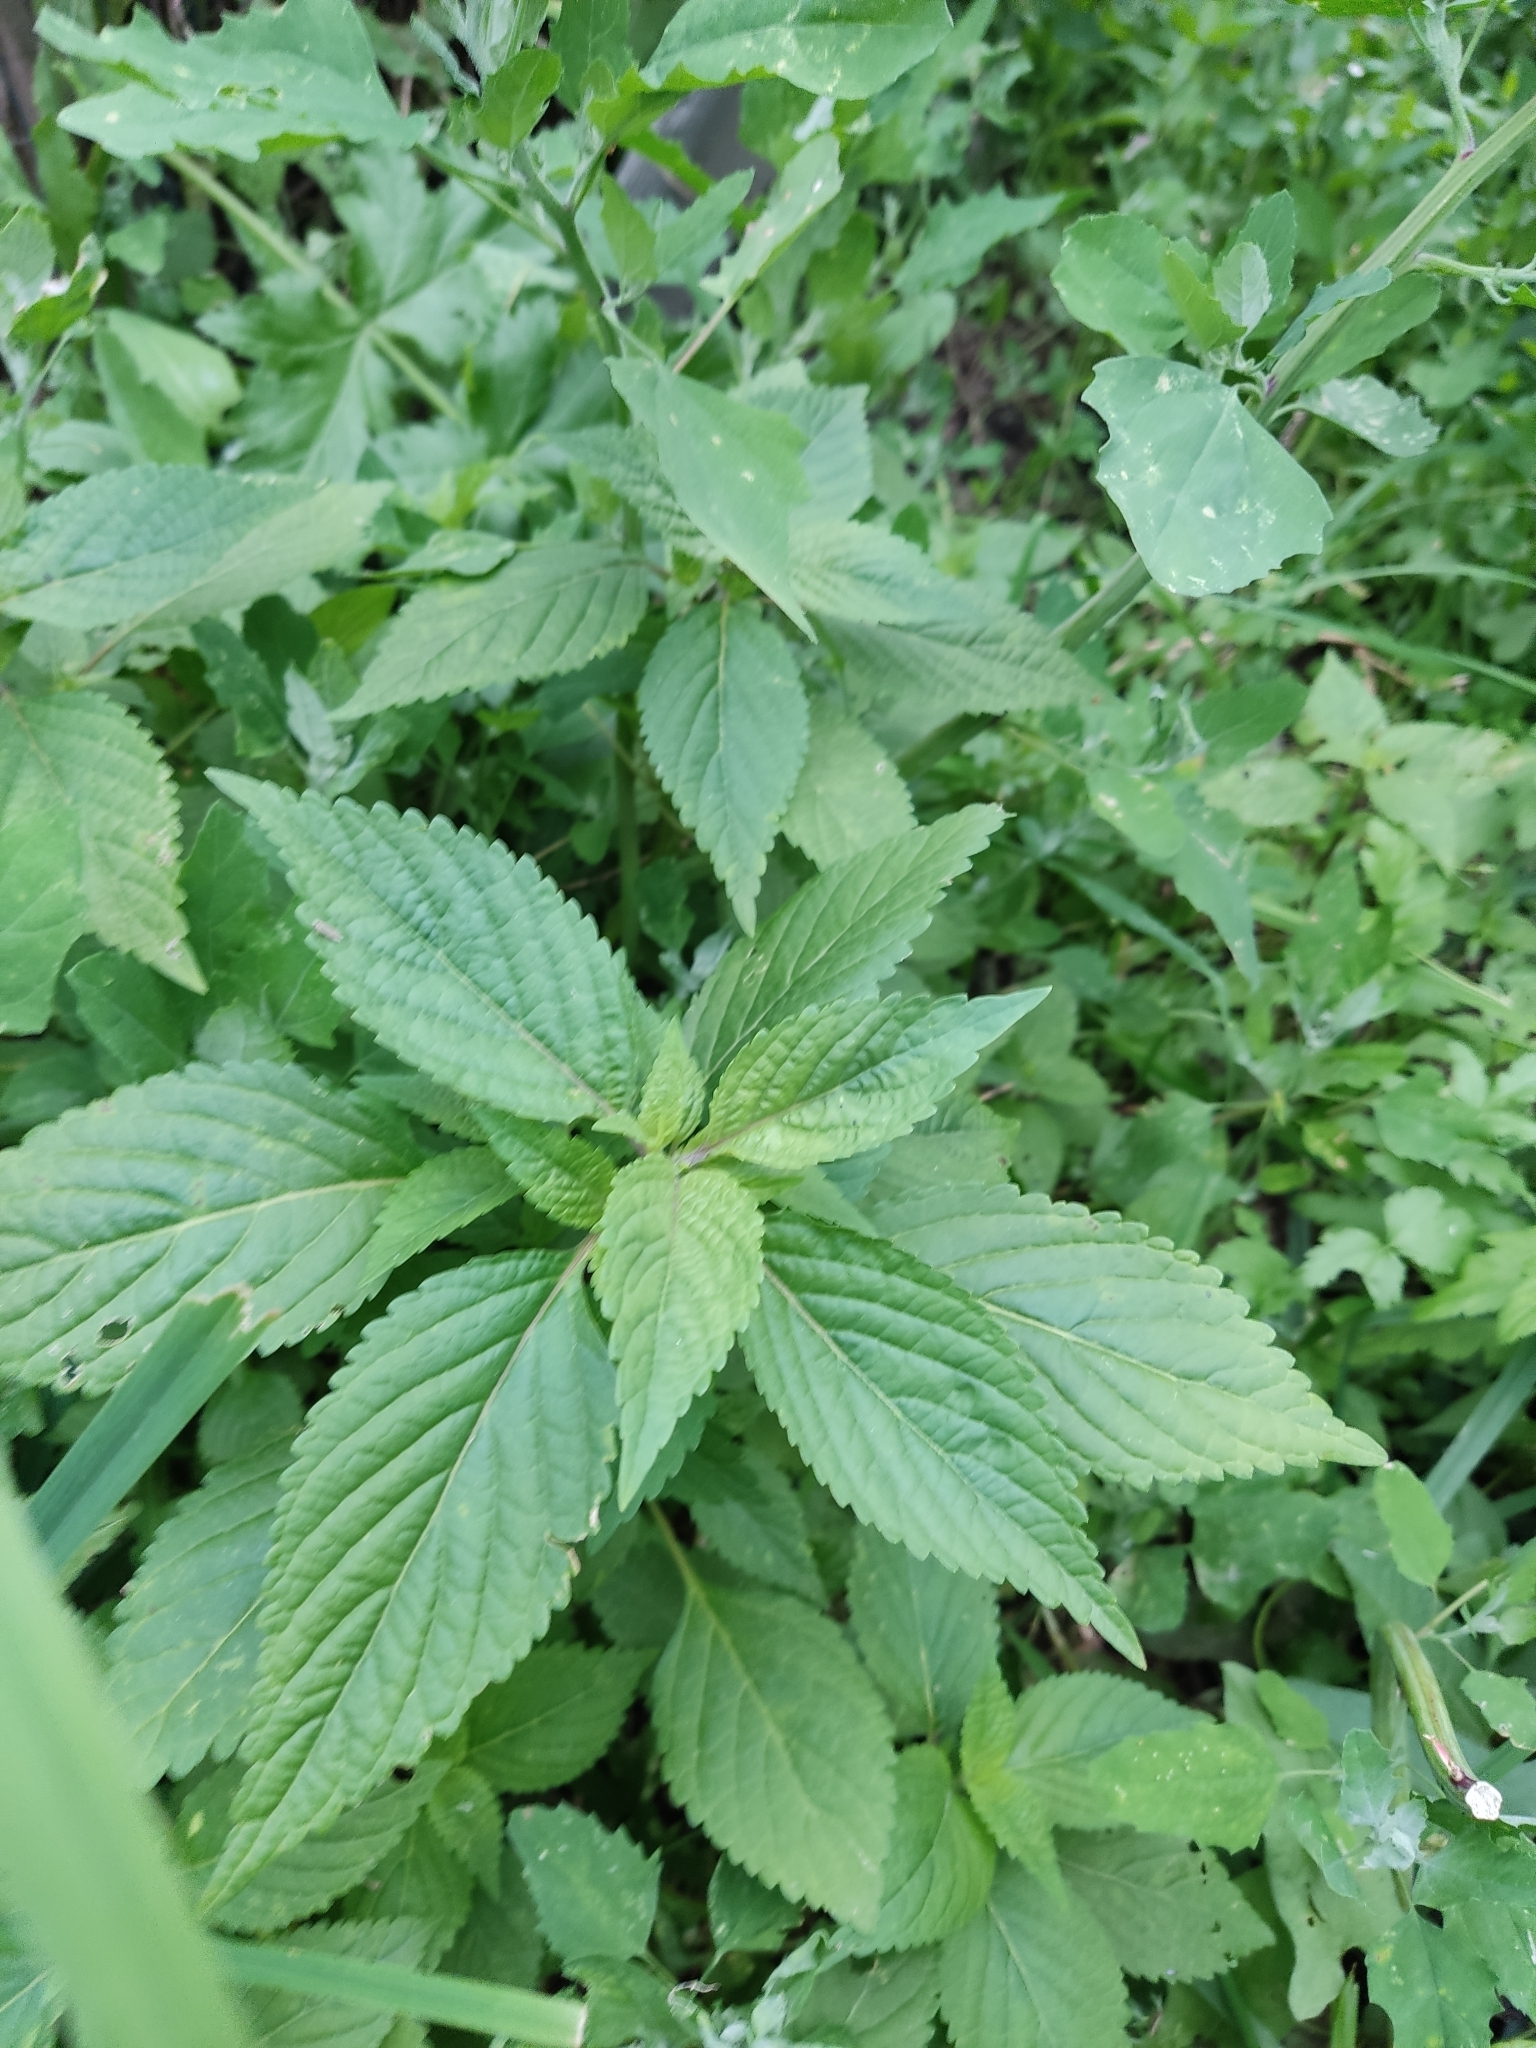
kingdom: Plantae
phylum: Tracheophyta
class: Magnoliopsida
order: Lamiales
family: Lamiaceae
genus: Elsholtzia
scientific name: Elsholtzia ciliata
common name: Ciliate elsholtzia
